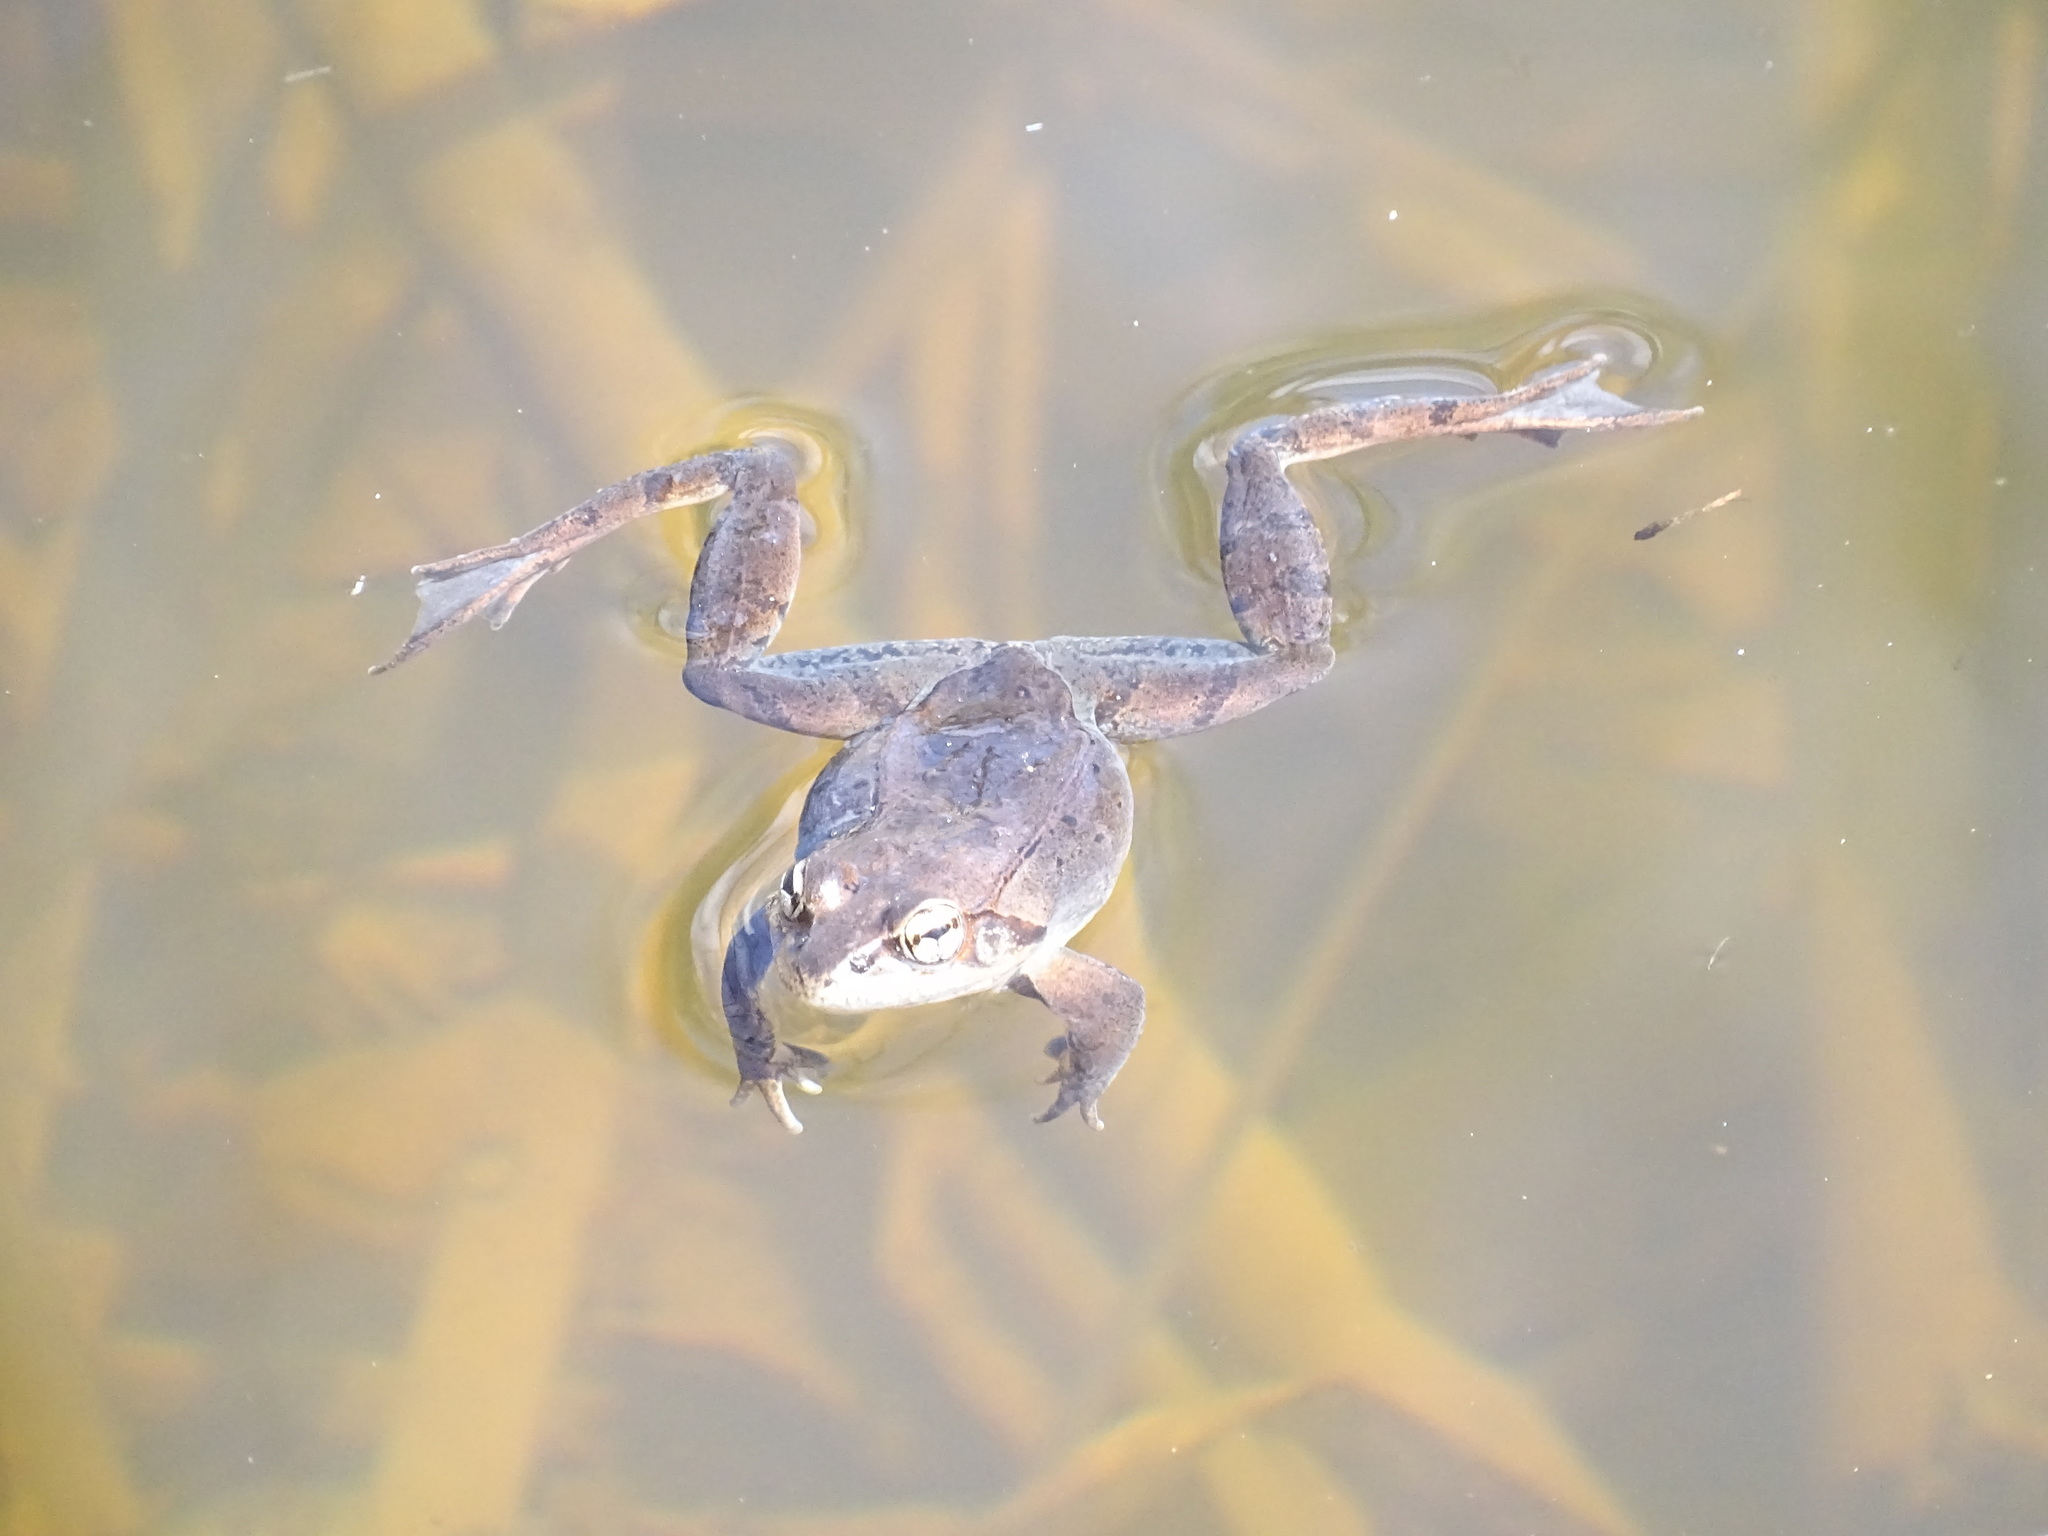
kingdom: Animalia
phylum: Chordata
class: Amphibia
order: Anura
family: Ranidae
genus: Lithobates
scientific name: Lithobates sylvaticus
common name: Wood frog
